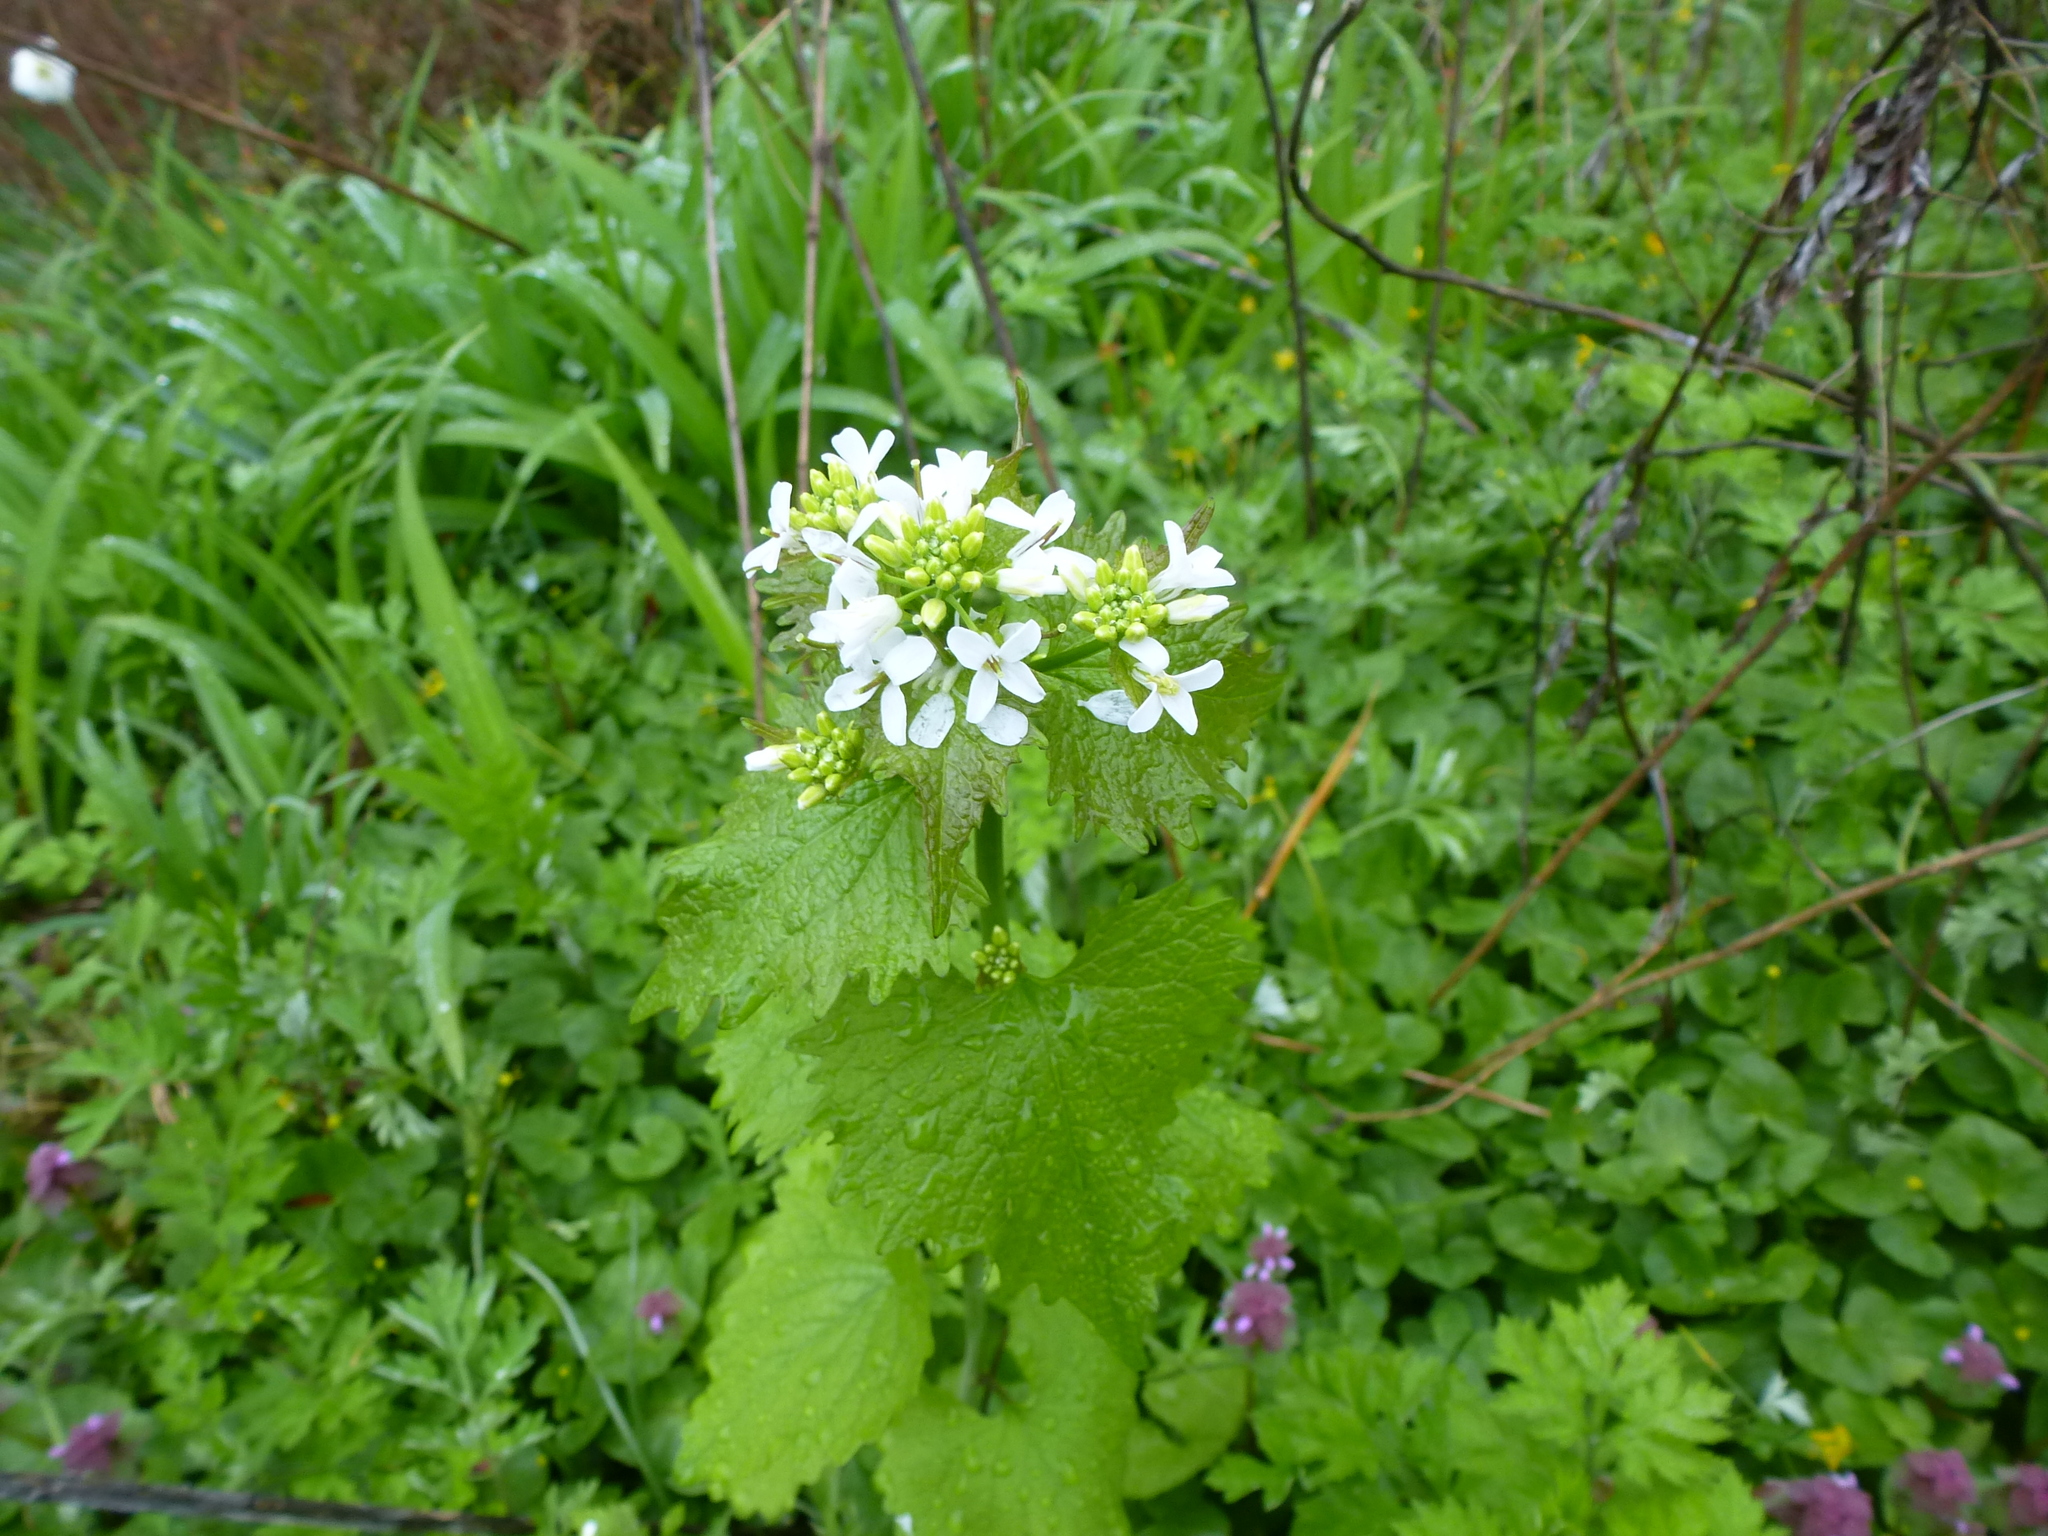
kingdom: Plantae
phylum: Tracheophyta
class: Magnoliopsida
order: Brassicales
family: Brassicaceae
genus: Alliaria
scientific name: Alliaria petiolata
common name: Garlic mustard
